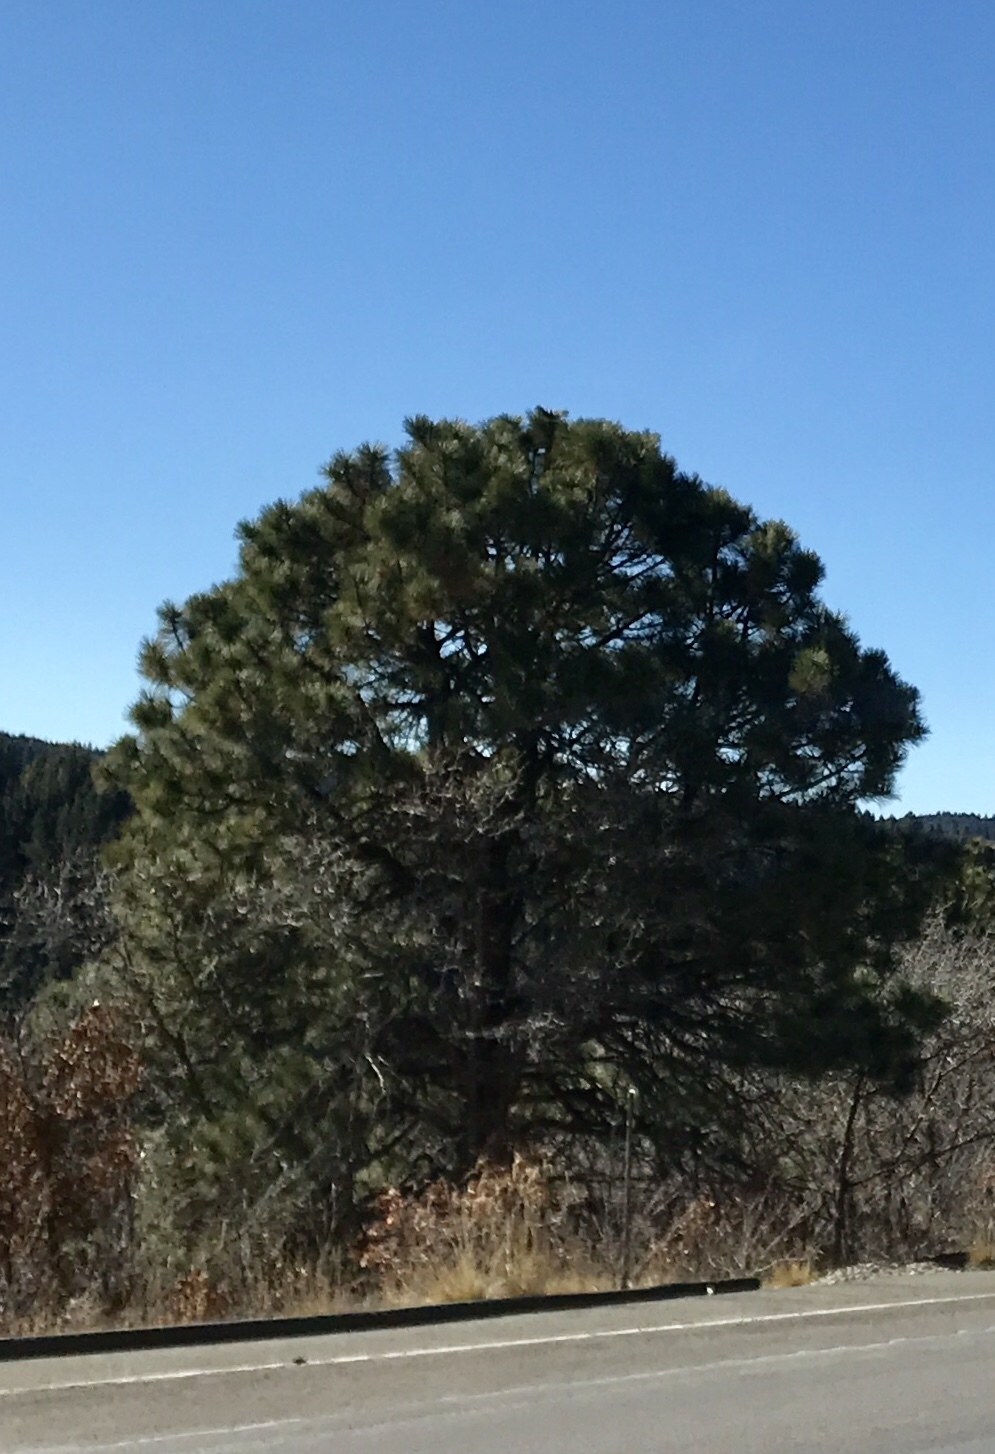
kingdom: Plantae
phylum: Tracheophyta
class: Pinopsida
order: Pinales
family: Pinaceae
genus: Pinus
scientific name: Pinus ponderosa
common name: Western yellow-pine
